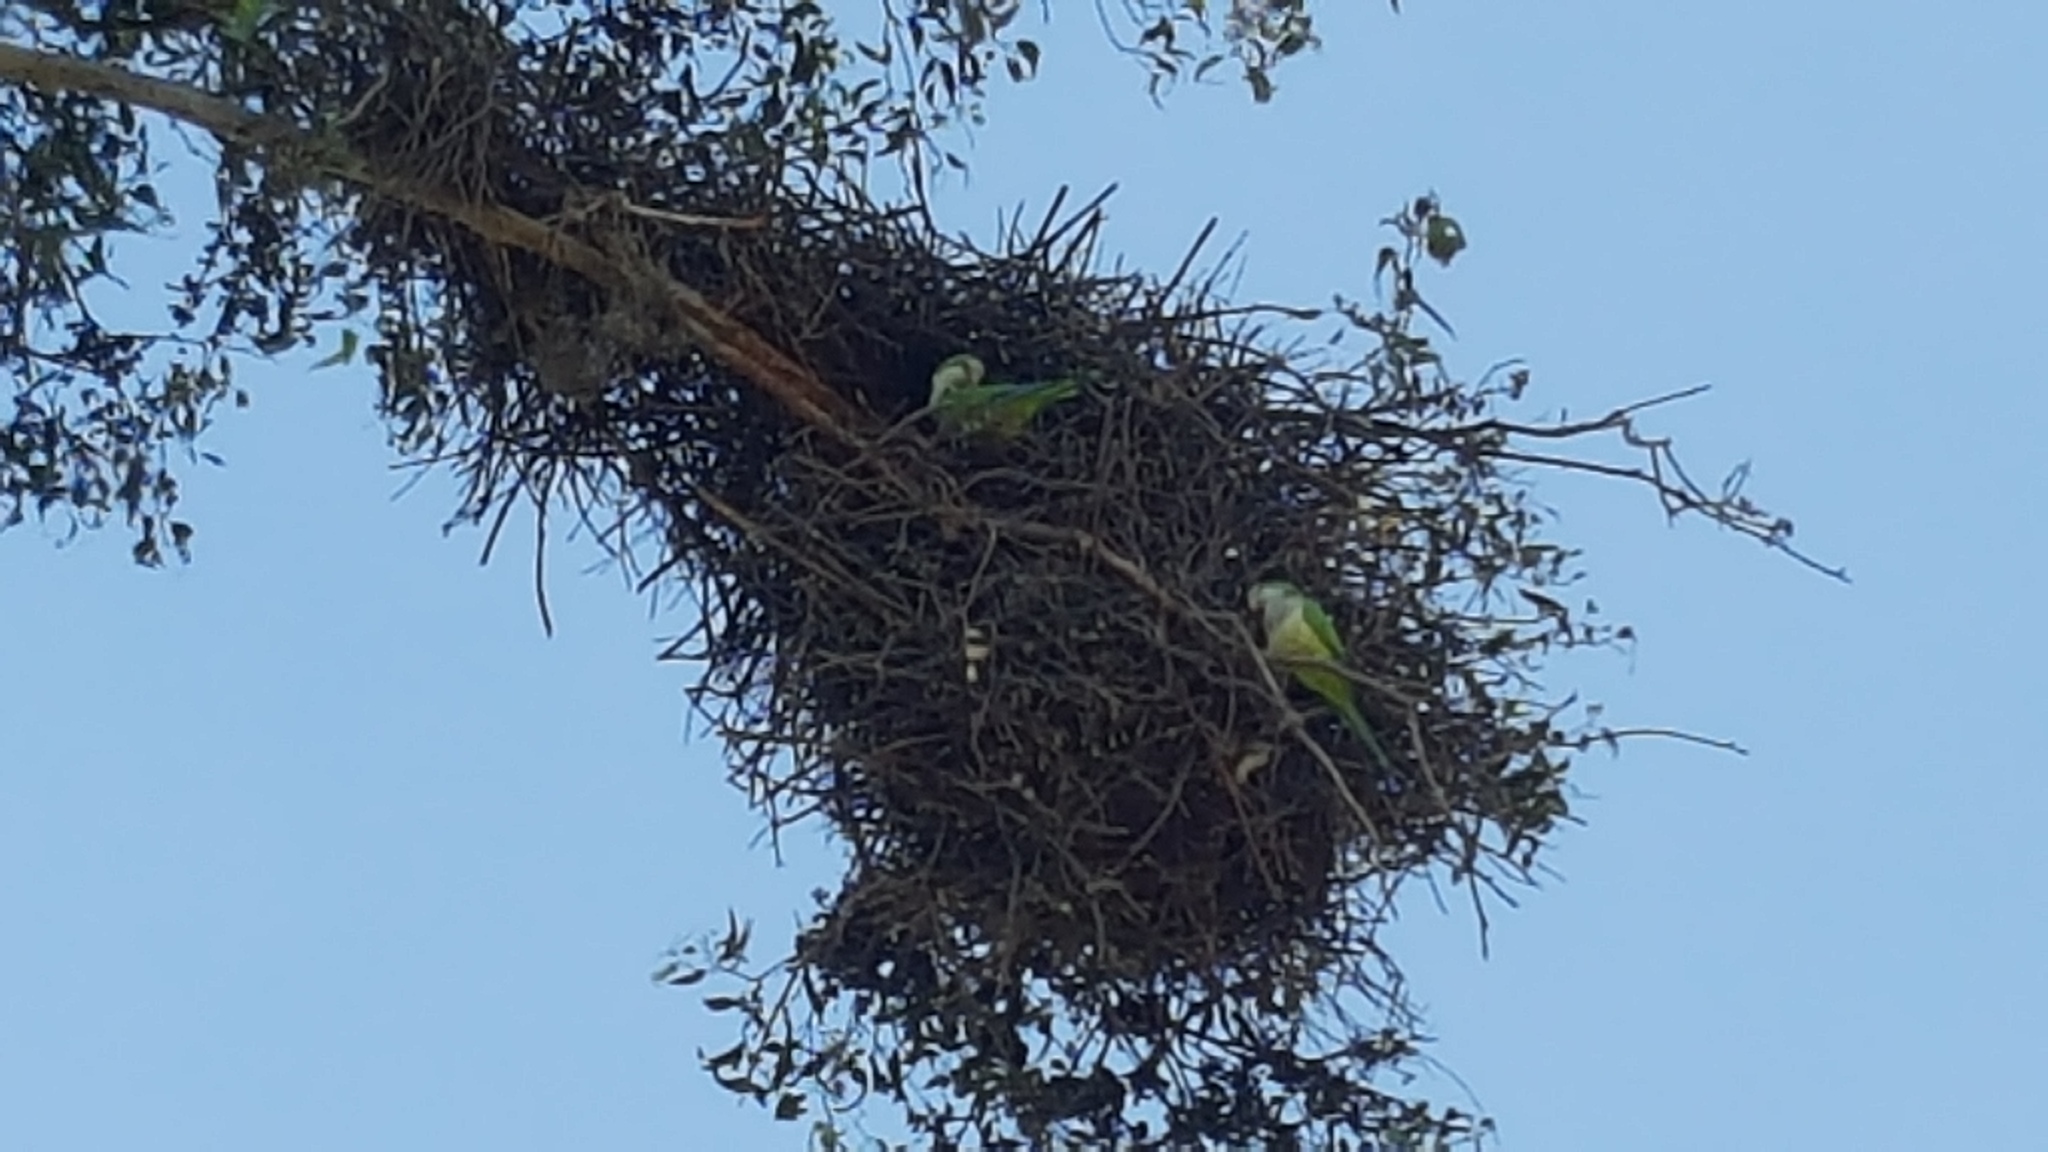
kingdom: Animalia
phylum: Chordata
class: Aves
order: Psittaciformes
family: Psittacidae
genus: Myiopsitta
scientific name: Myiopsitta monachus
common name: Monk parakeet
